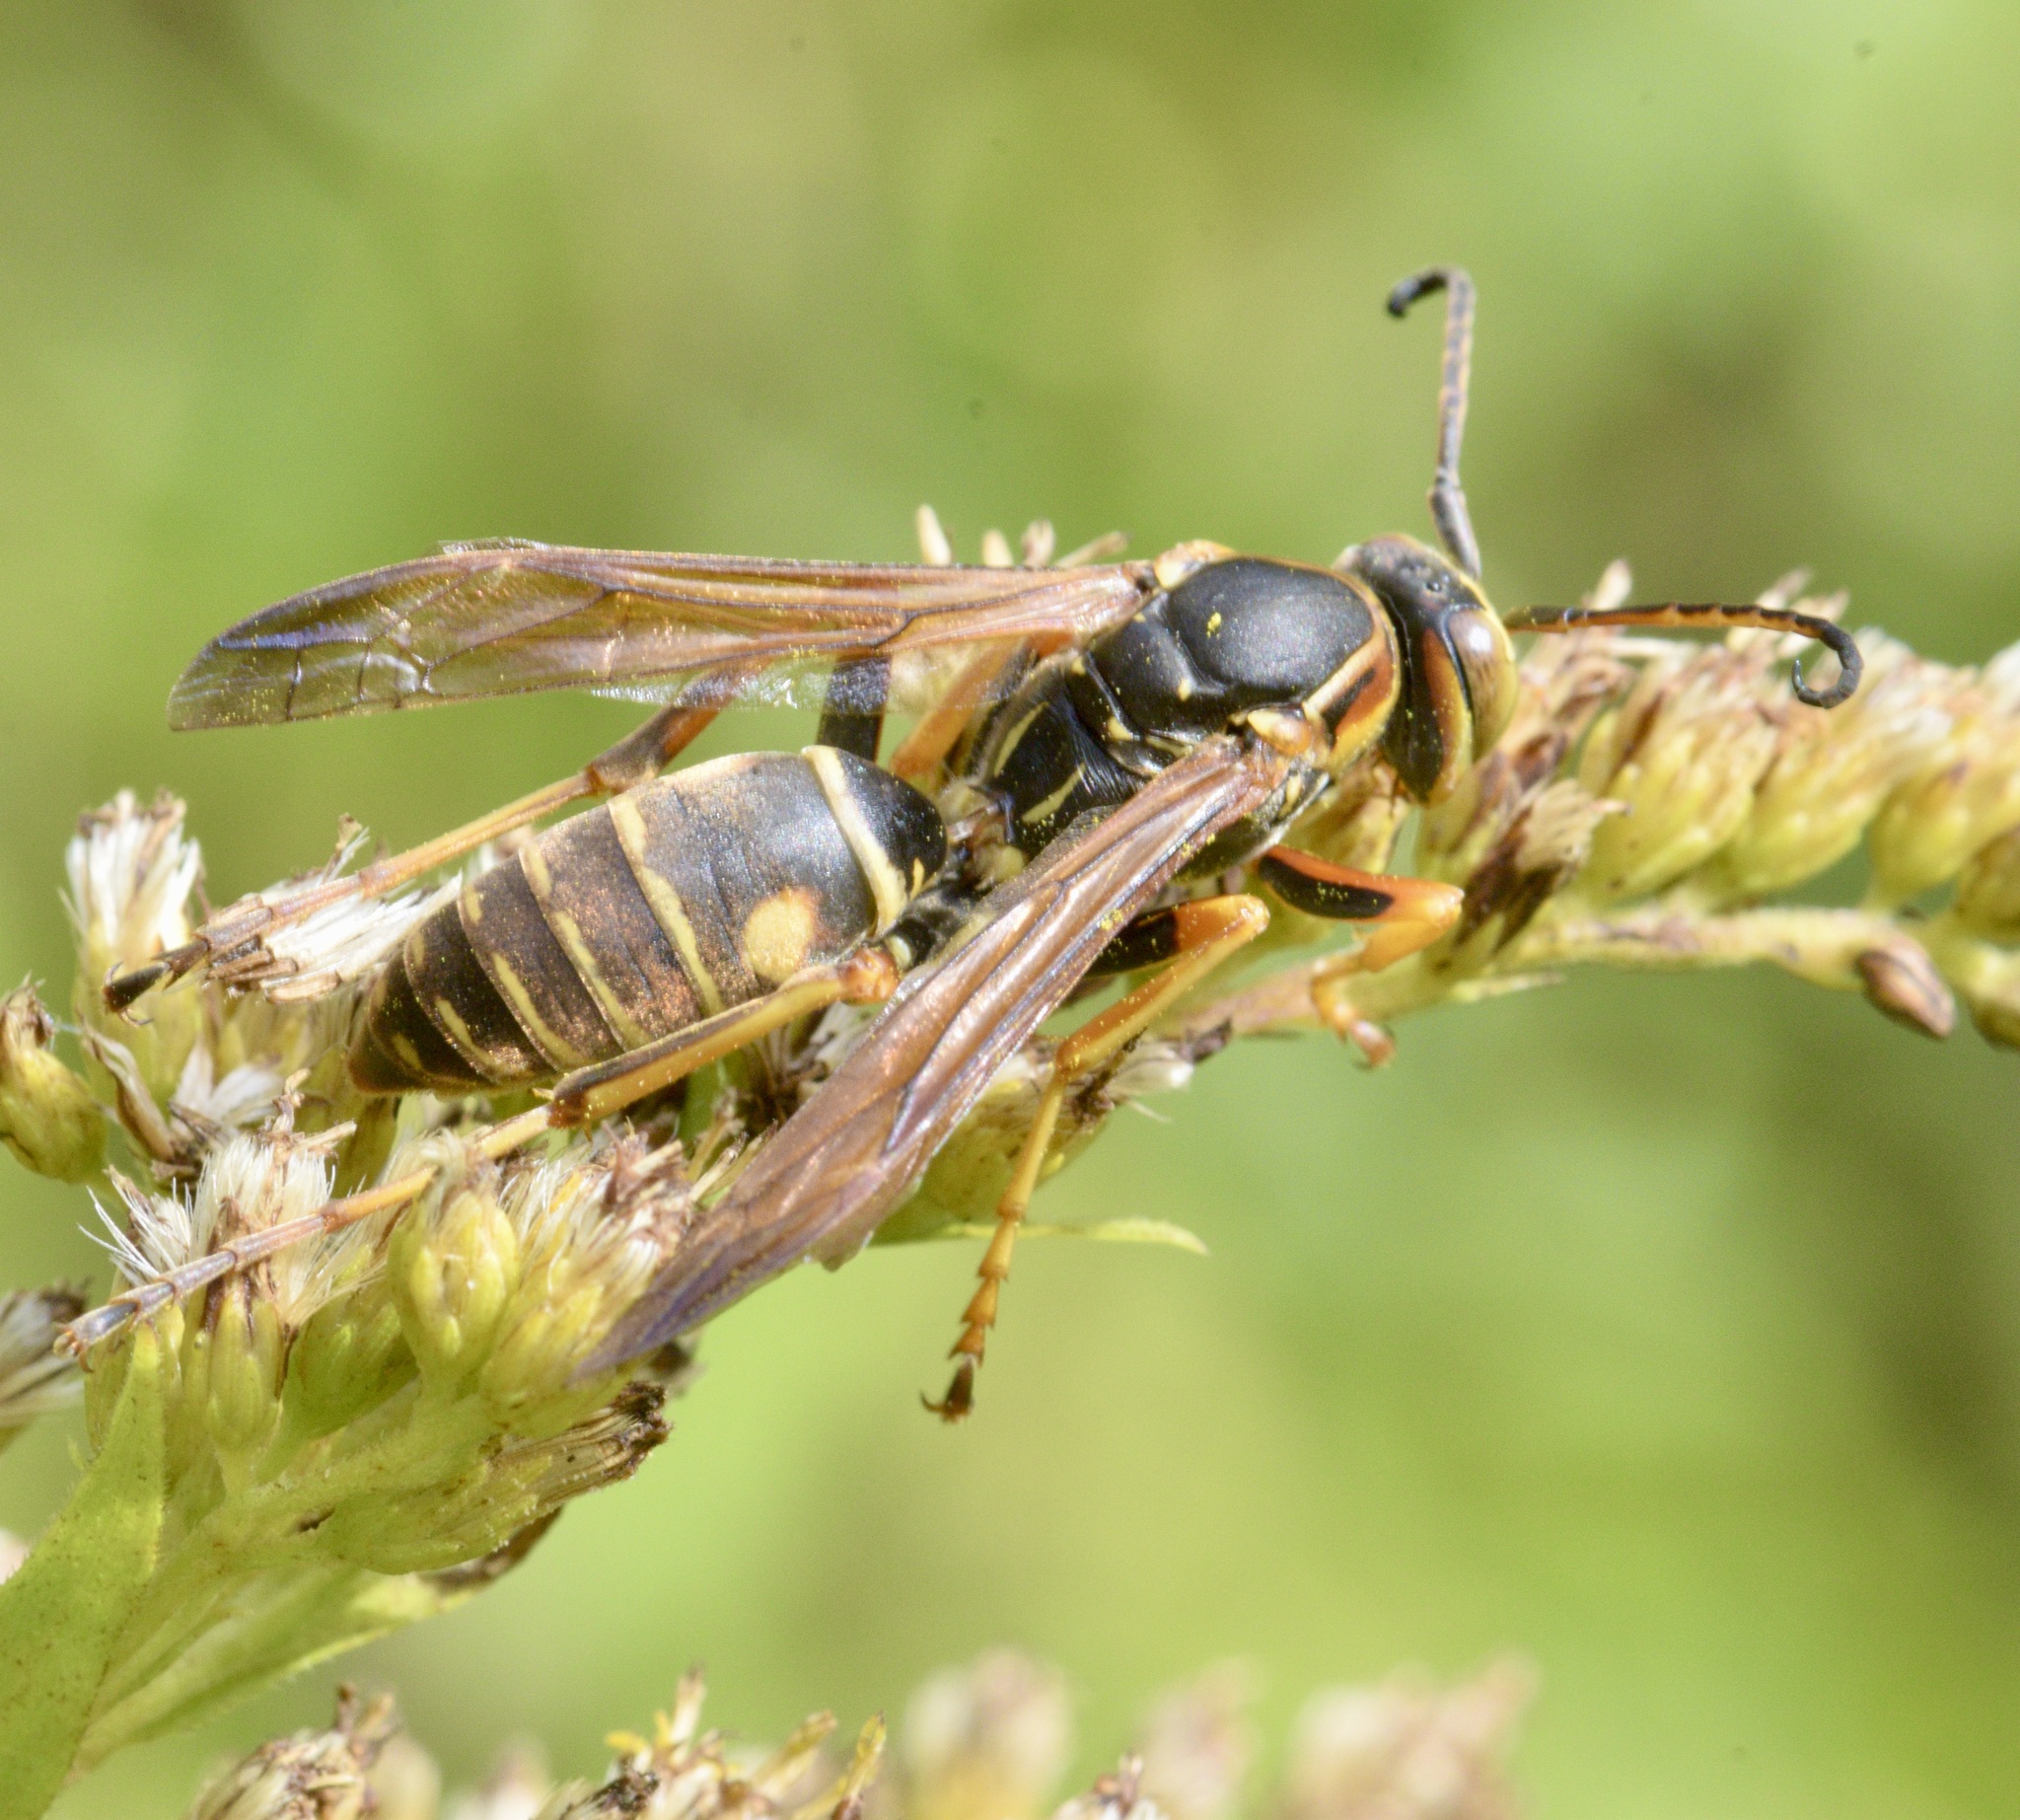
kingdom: Animalia
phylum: Arthropoda
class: Insecta
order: Hymenoptera
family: Eumenidae
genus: Polistes
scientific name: Polistes fuscatus
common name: Dark paper wasp
